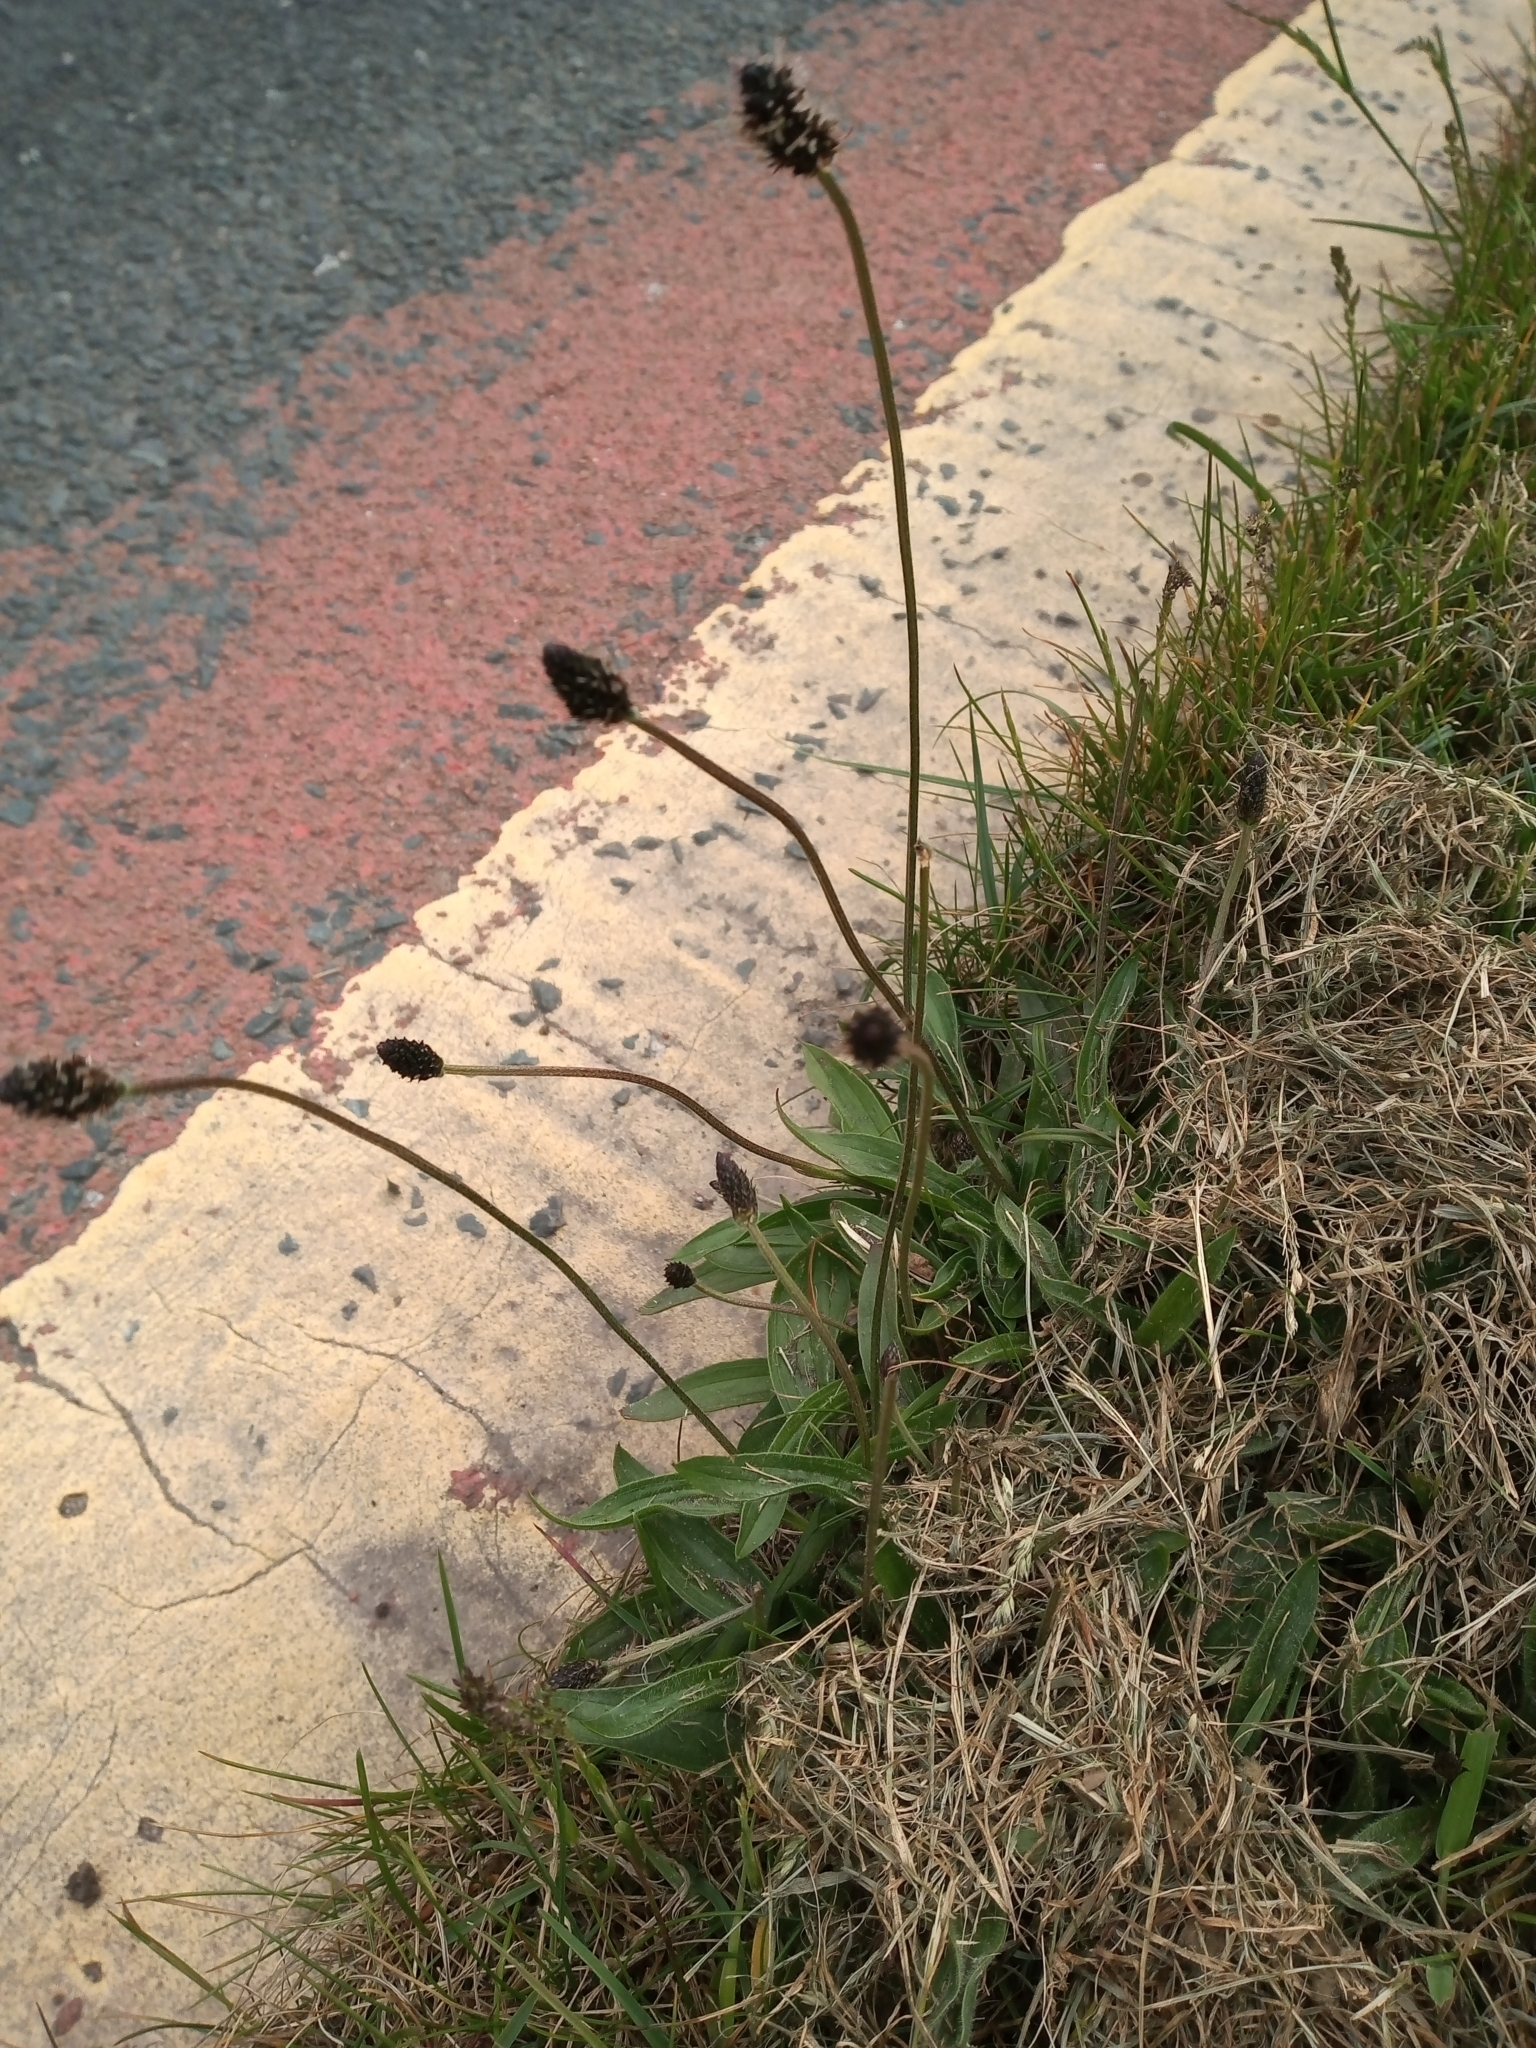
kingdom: Plantae
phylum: Tracheophyta
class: Magnoliopsida
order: Lamiales
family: Plantaginaceae
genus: Plantago
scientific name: Plantago lanceolata
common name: Ribwort plantain
